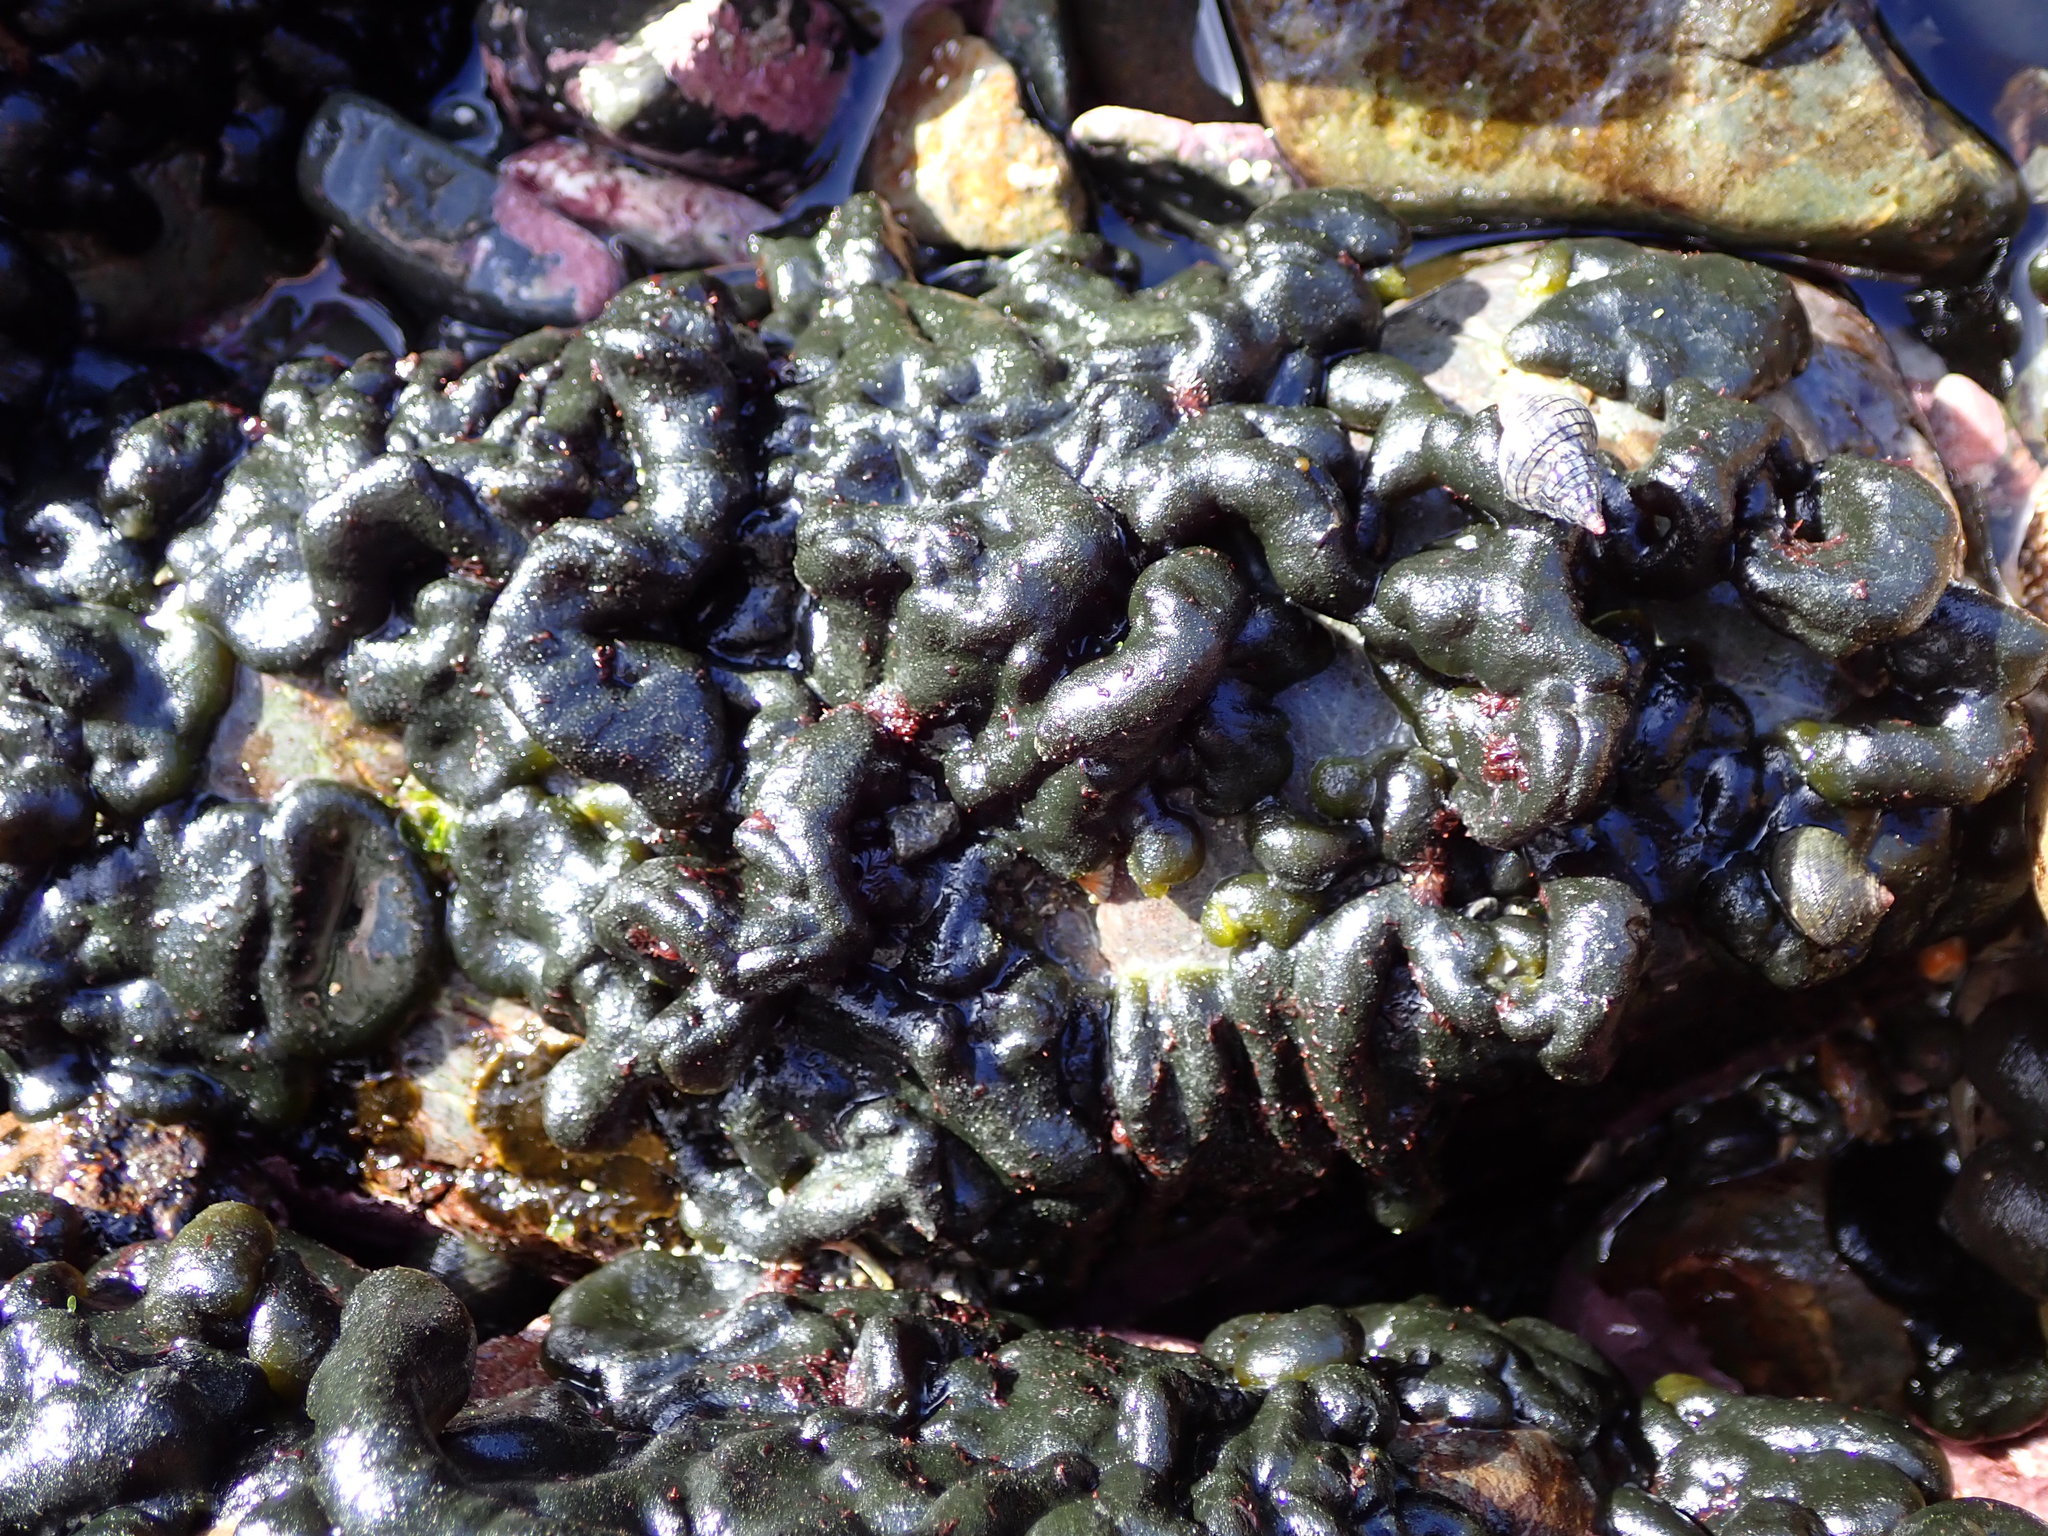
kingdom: Plantae
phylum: Chlorophyta
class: Ulvophyceae
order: Bryopsidales
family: Codiaceae
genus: Codium
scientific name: Codium convolutum
